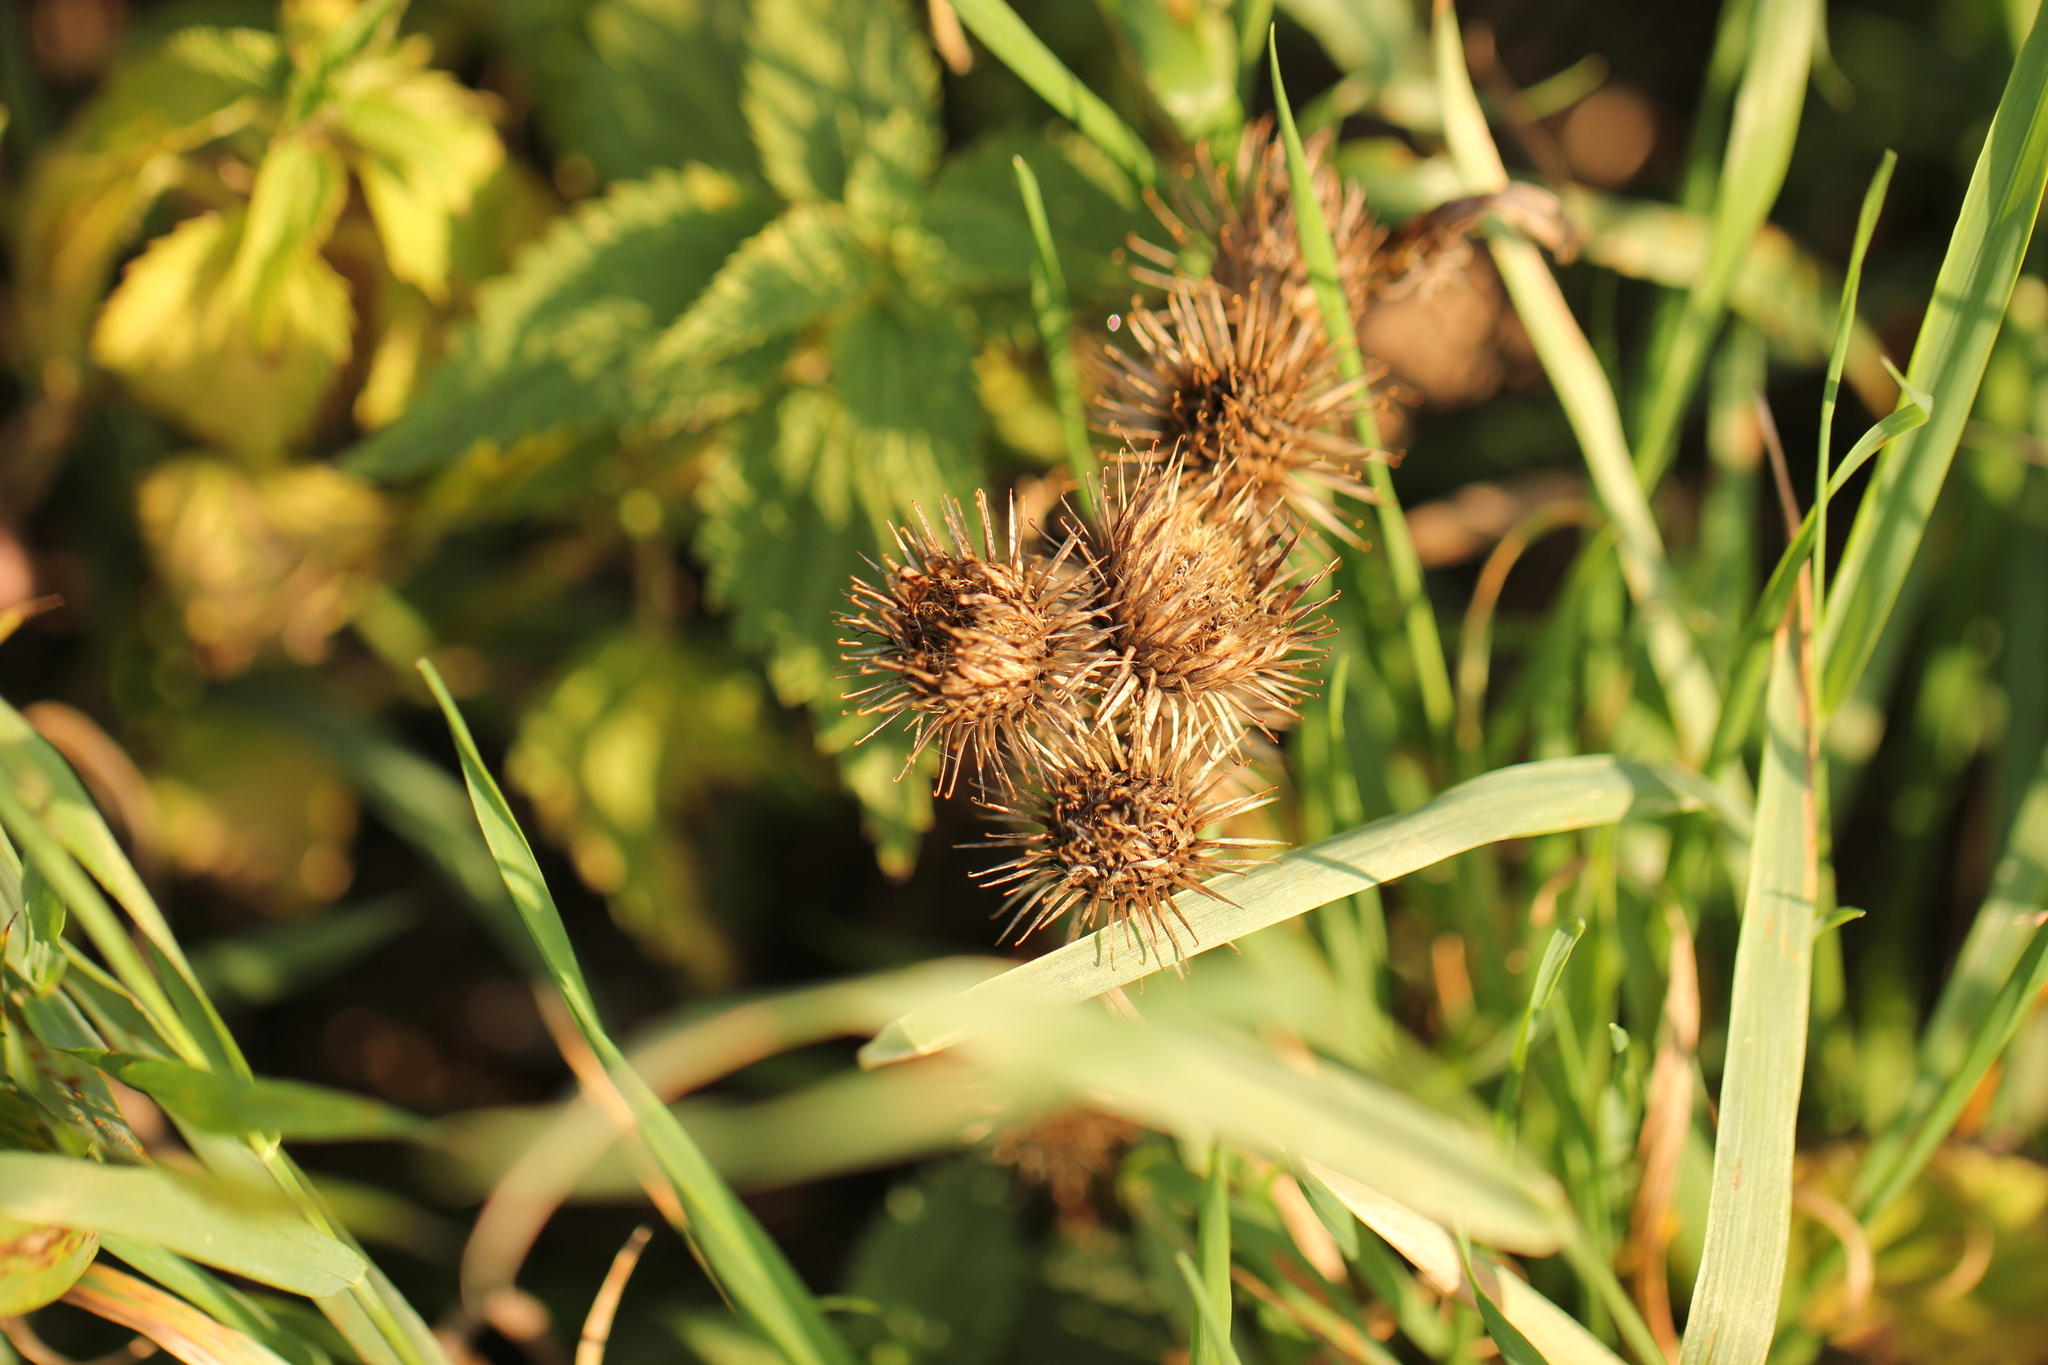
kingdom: Plantae
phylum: Tracheophyta
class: Magnoliopsida
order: Asterales
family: Asteraceae
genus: Arctium
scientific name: Arctium minus
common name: Lesser burdock
